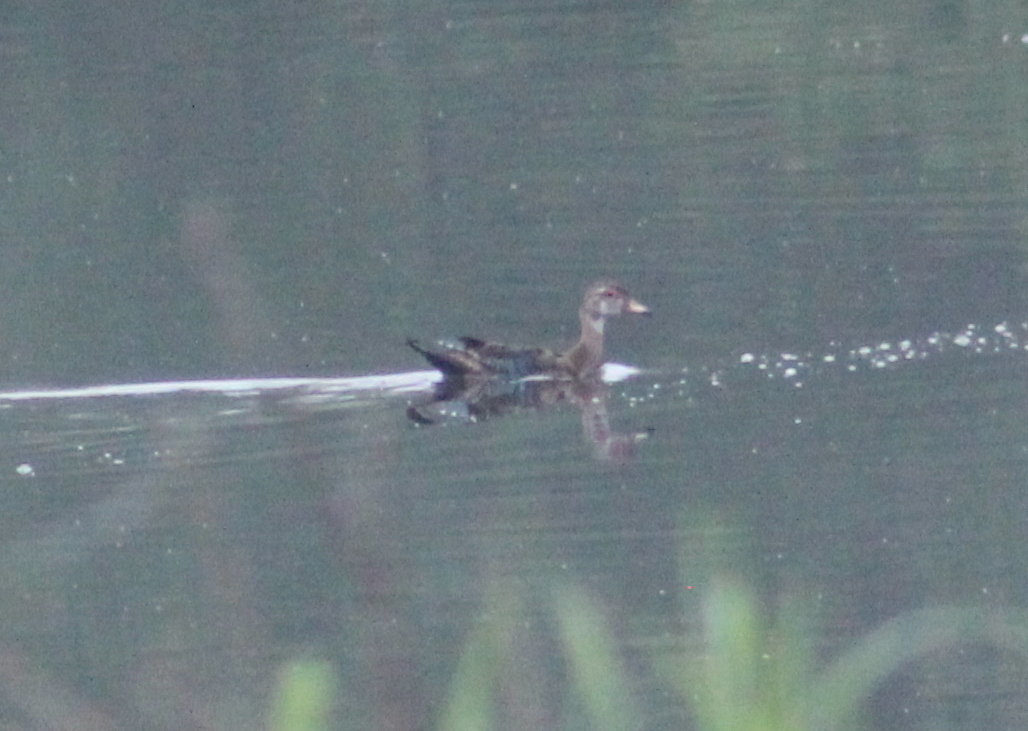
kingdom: Animalia
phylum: Chordata
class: Aves
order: Anseriformes
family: Anatidae
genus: Aix
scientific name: Aix sponsa
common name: Wood duck
